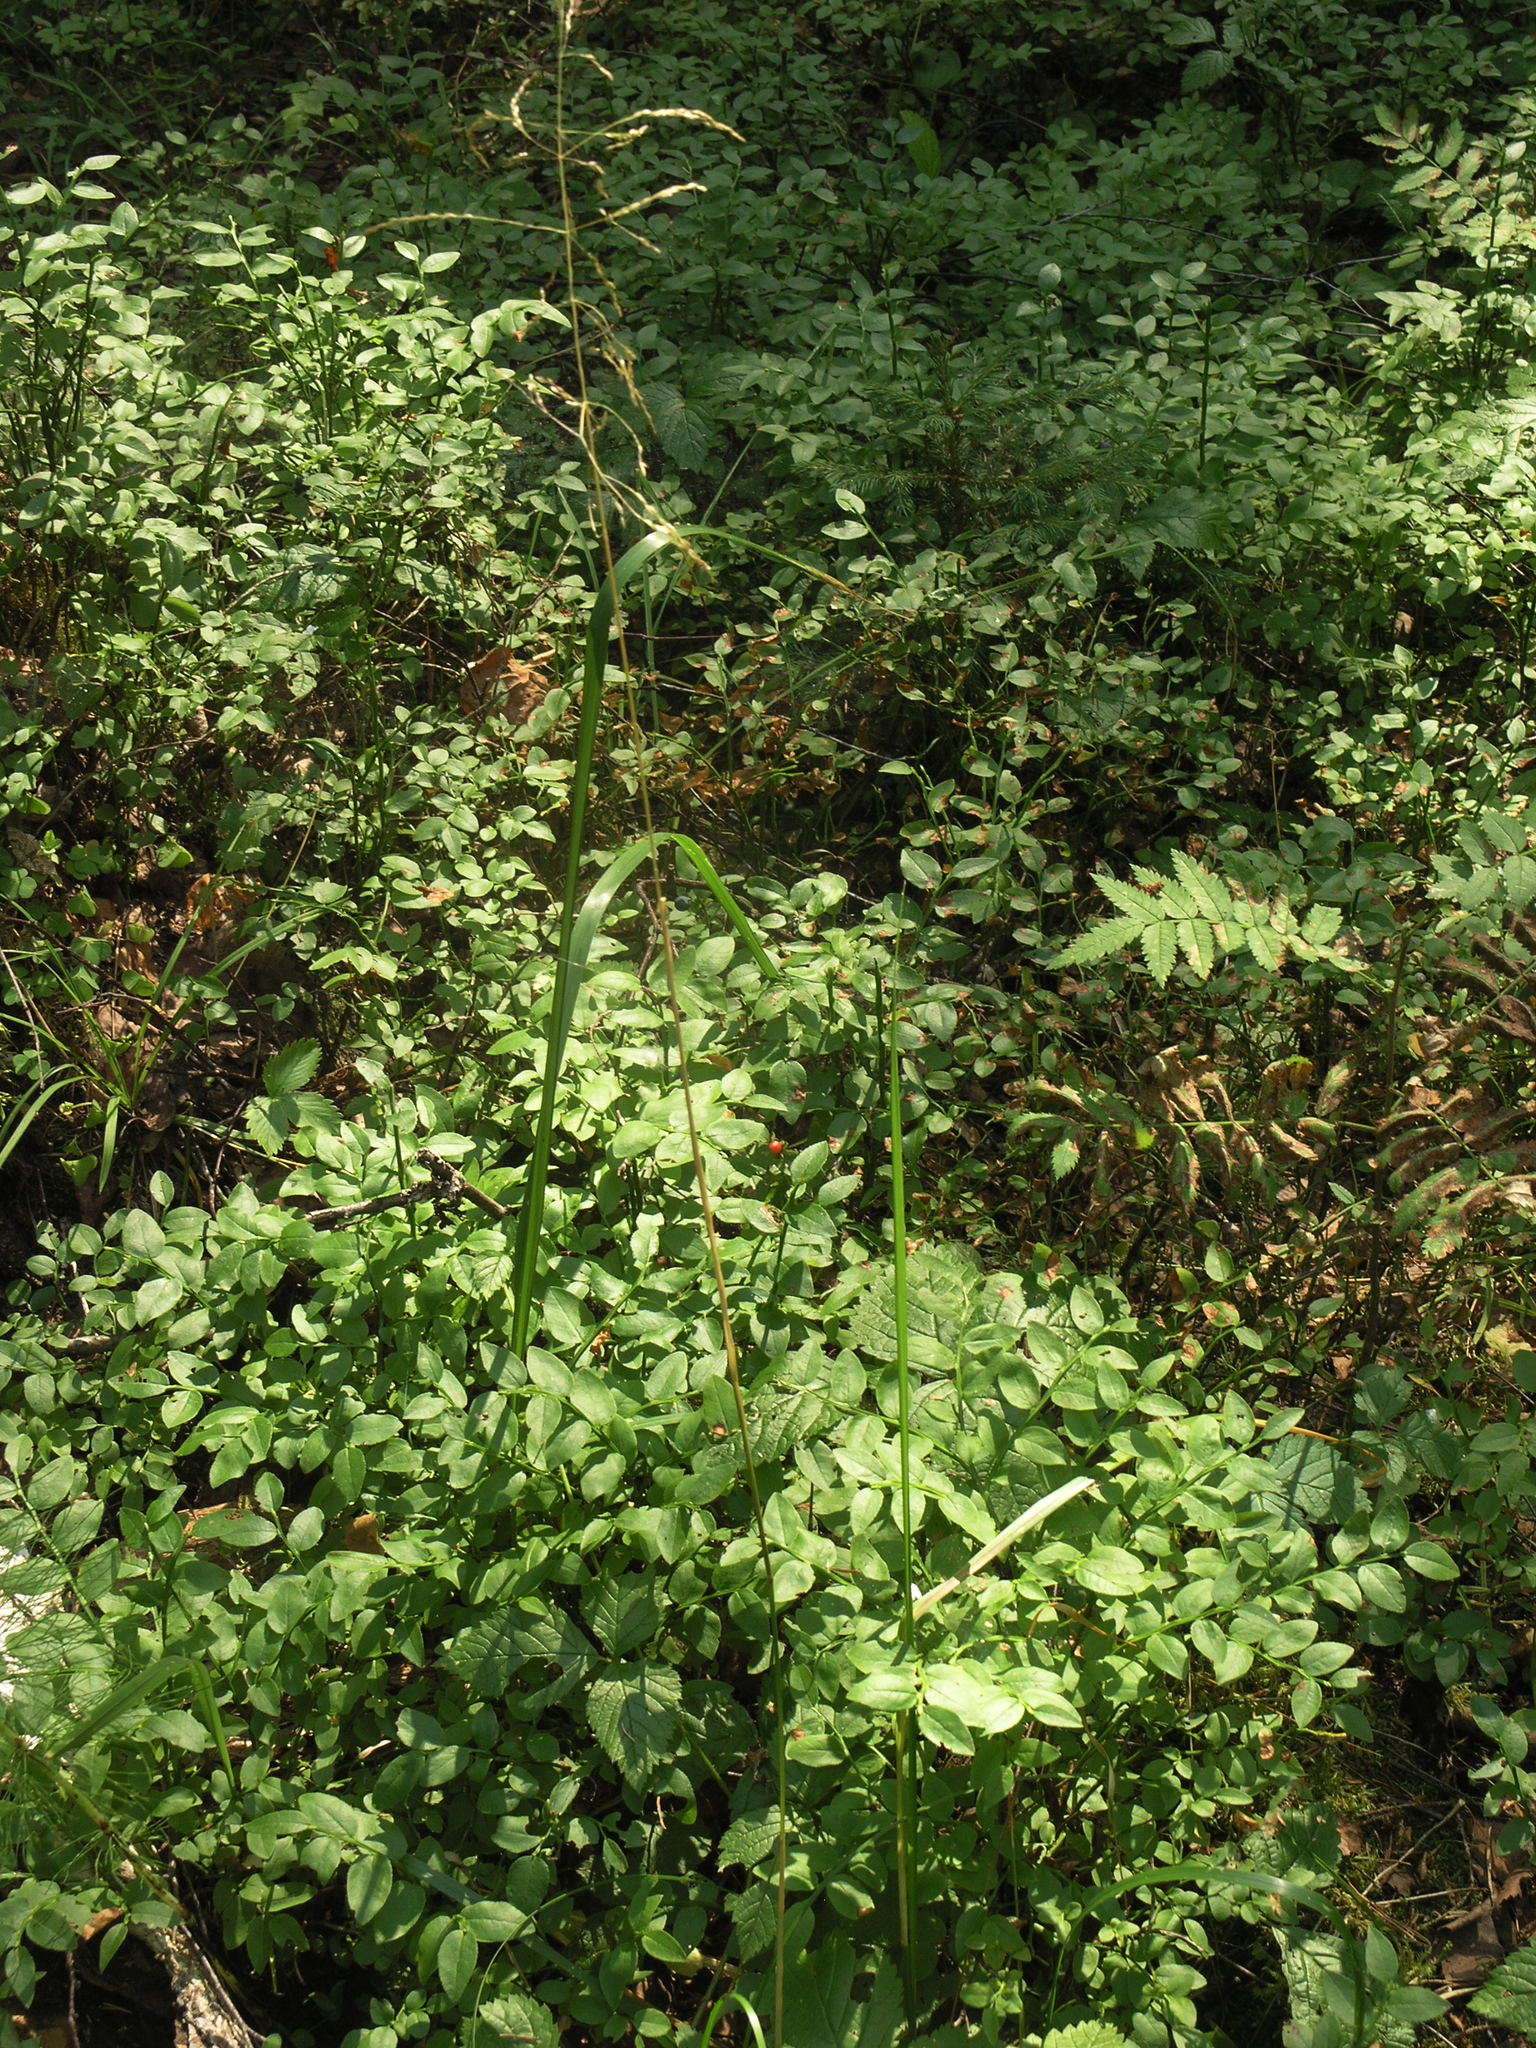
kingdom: Plantae
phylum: Tracheophyta
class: Magnoliopsida
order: Ericales
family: Ericaceae
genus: Vaccinium
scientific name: Vaccinium myrtillus
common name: Bilberry
